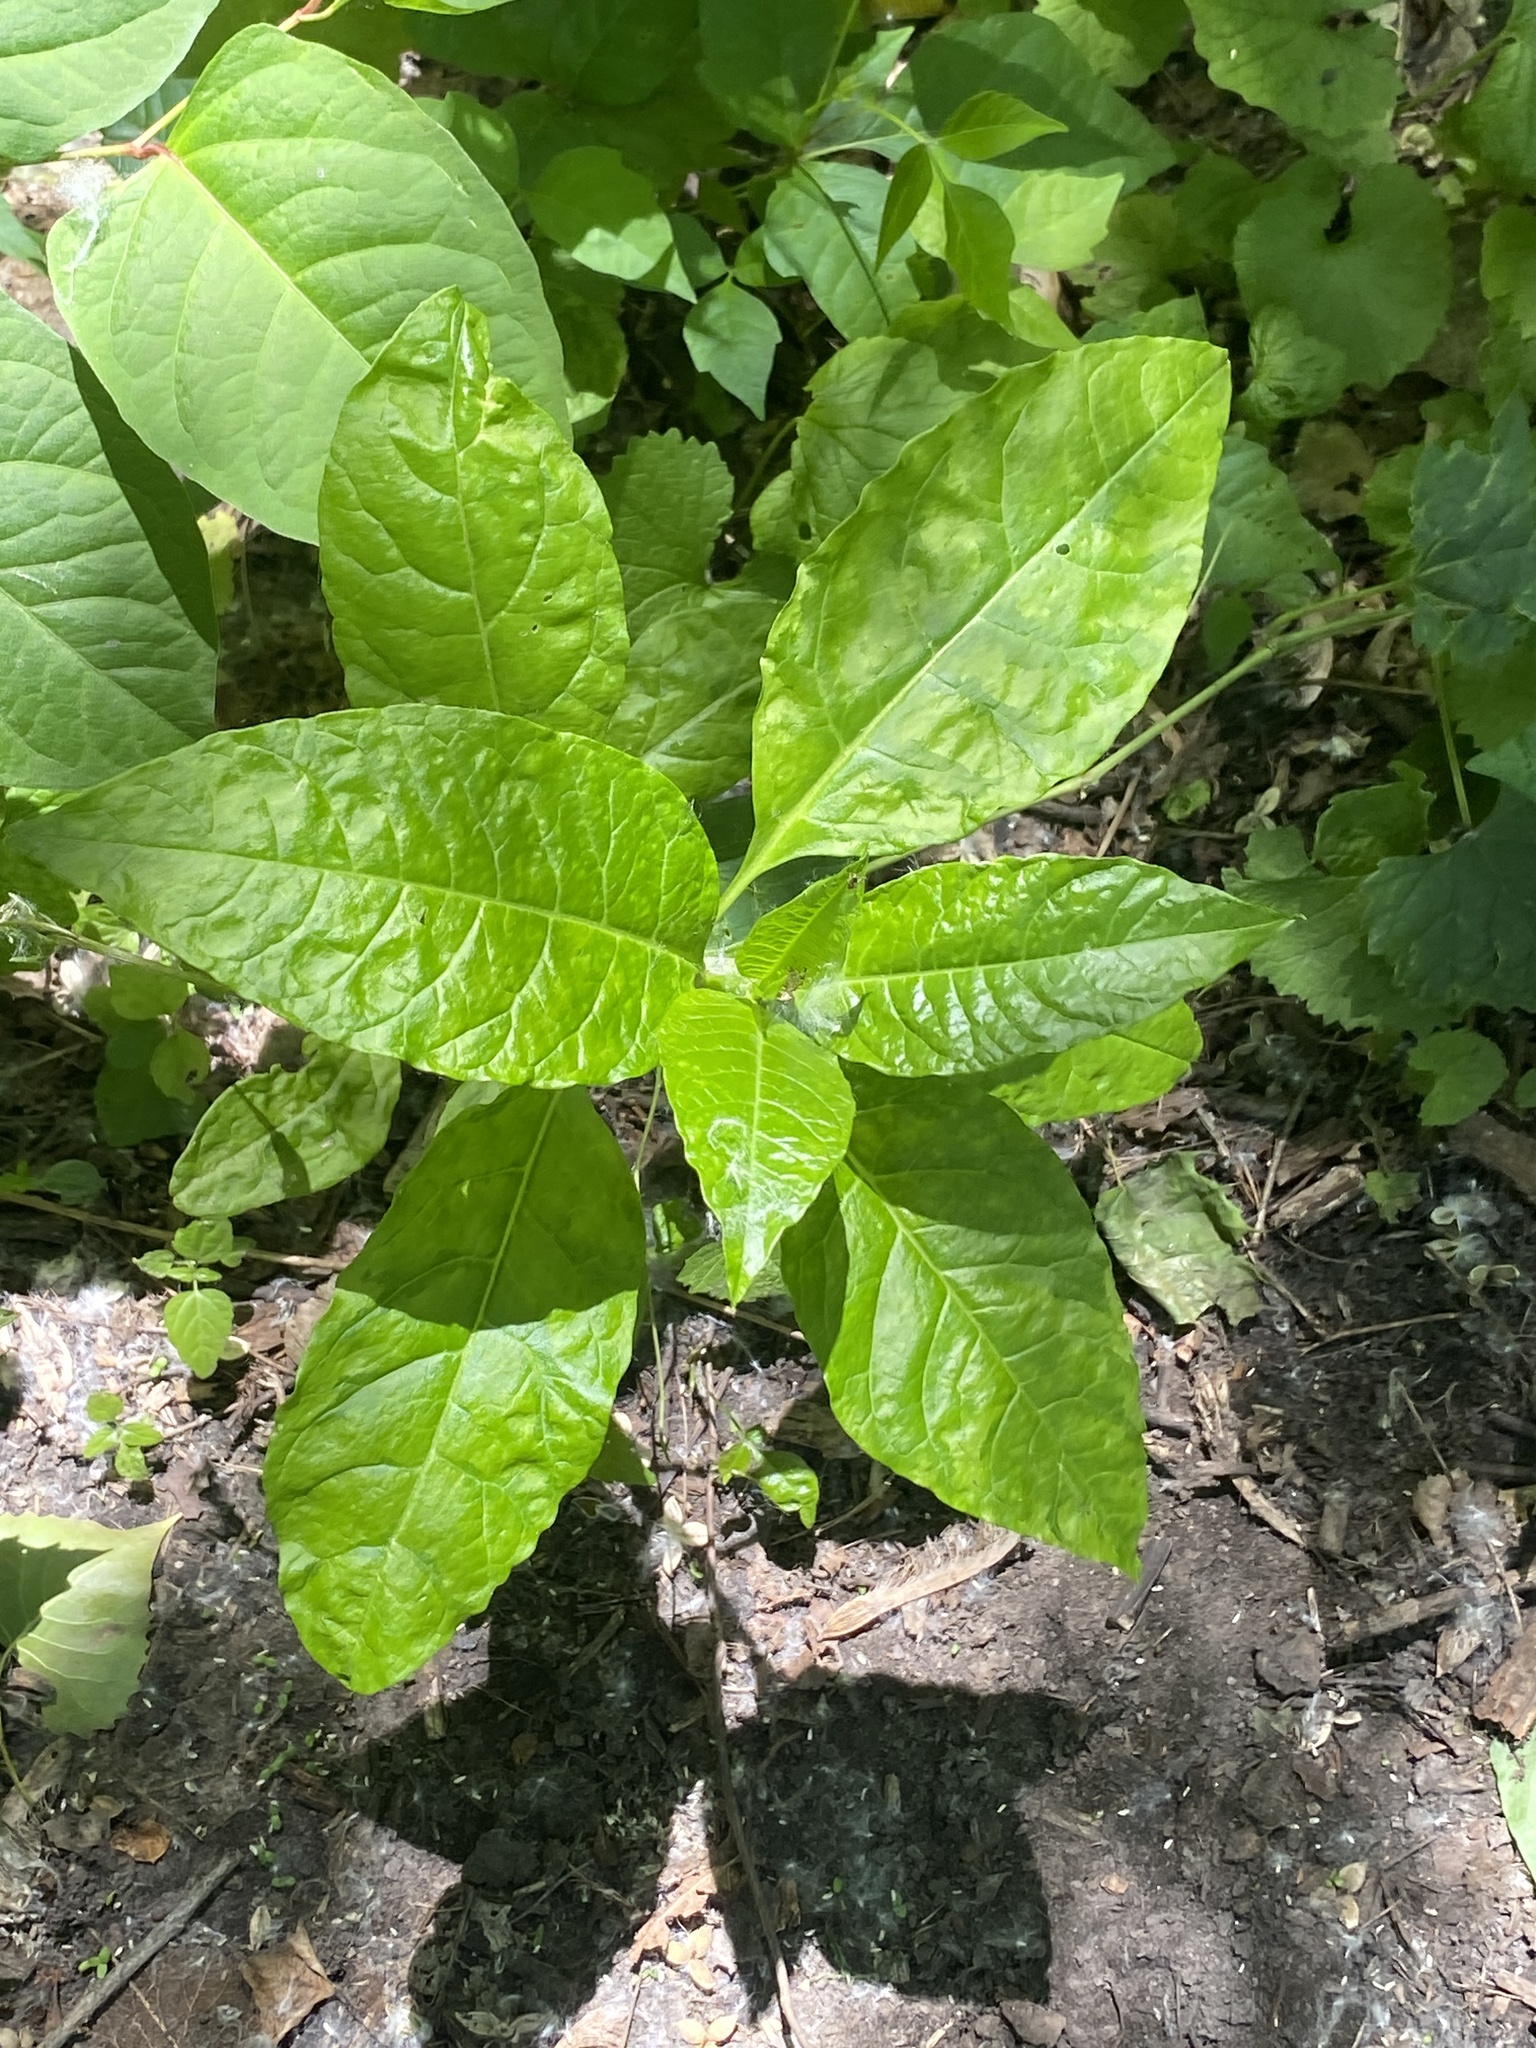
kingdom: Plantae
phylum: Tracheophyta
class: Magnoliopsida
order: Caryophyllales
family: Phytolaccaceae
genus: Phytolacca
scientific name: Phytolacca americana
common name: American pokeweed
